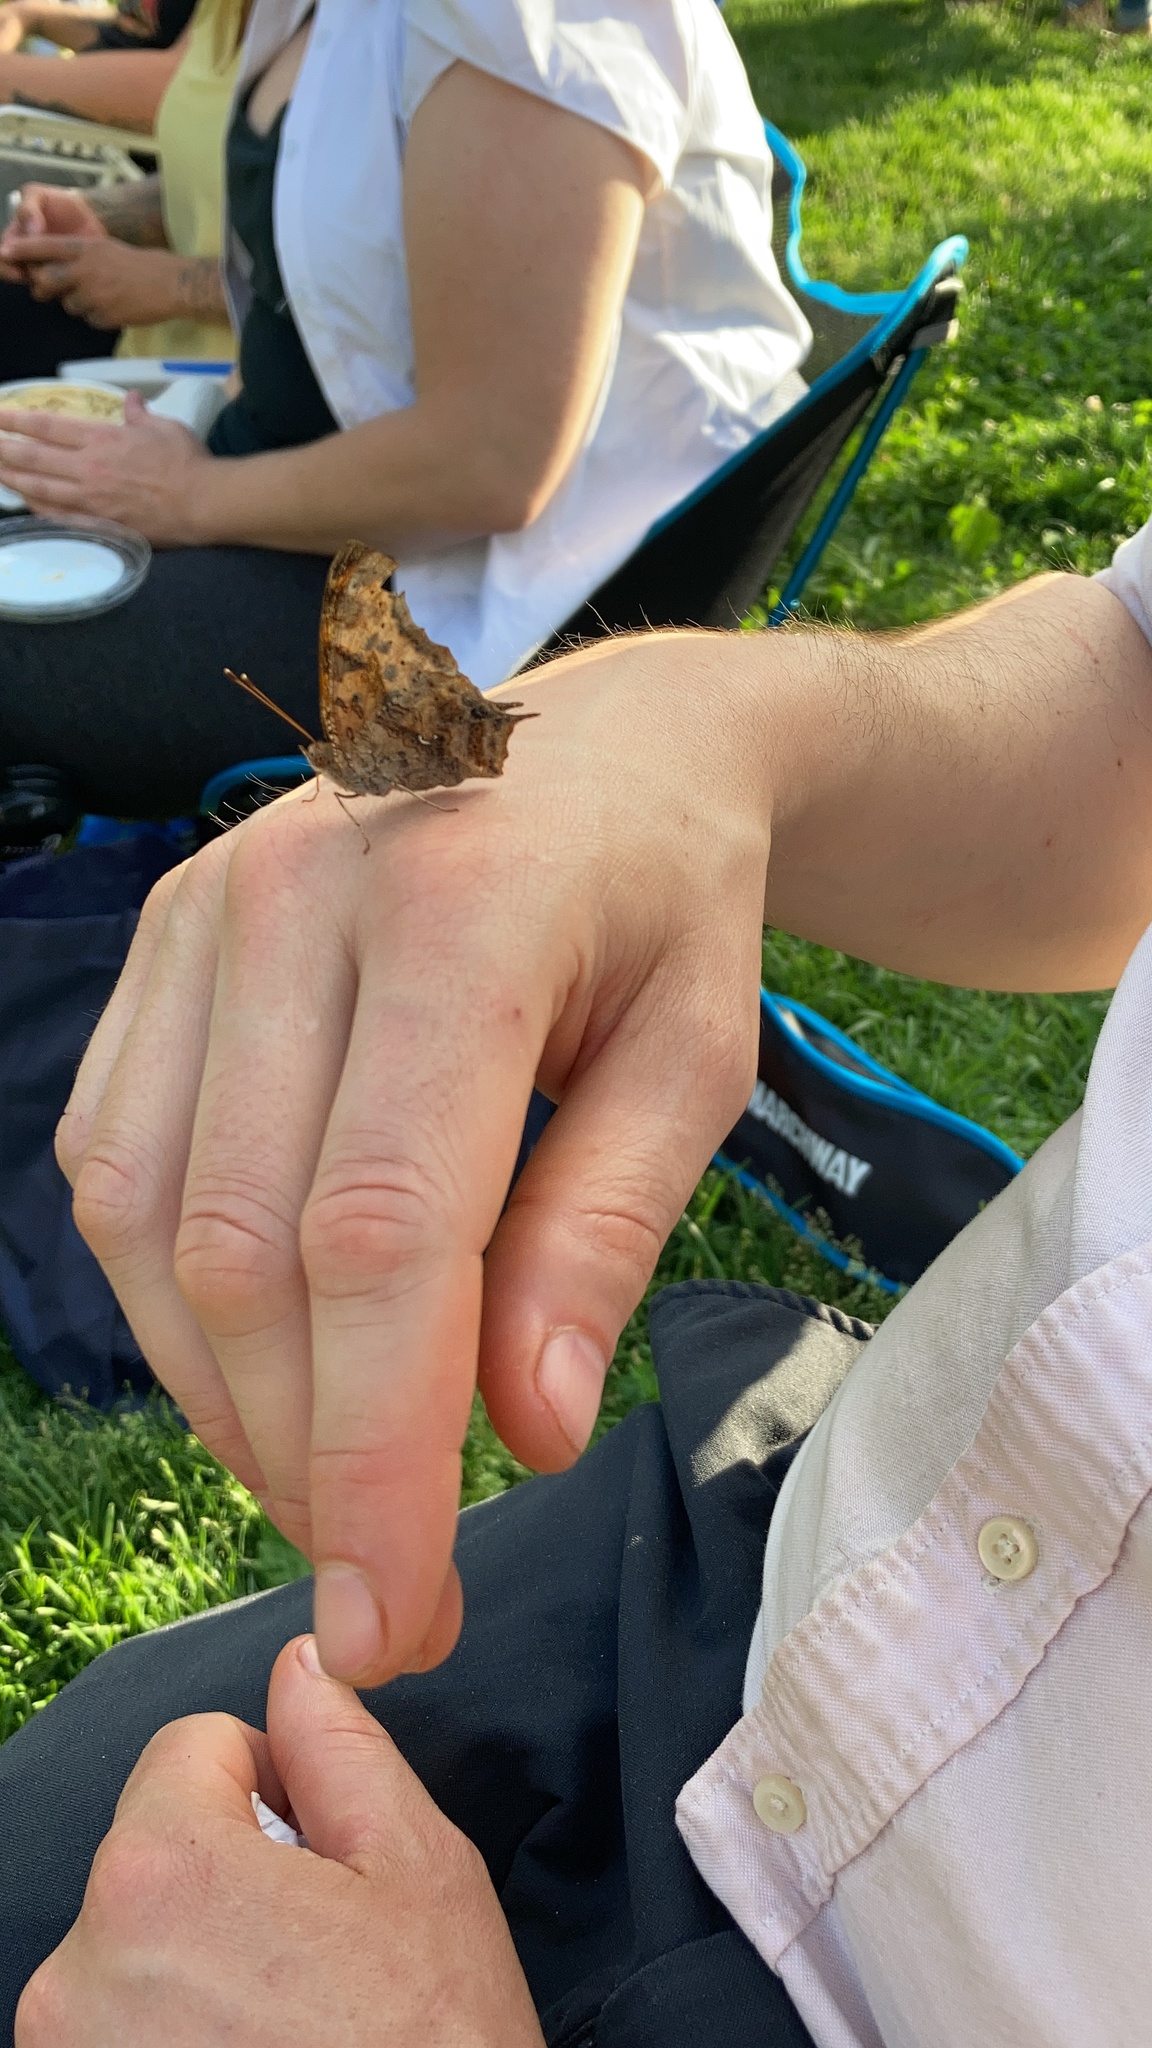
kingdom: Animalia
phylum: Arthropoda
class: Insecta
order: Lepidoptera
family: Nymphalidae
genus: Polygonia
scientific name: Polygonia interrogationis
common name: Question mark
